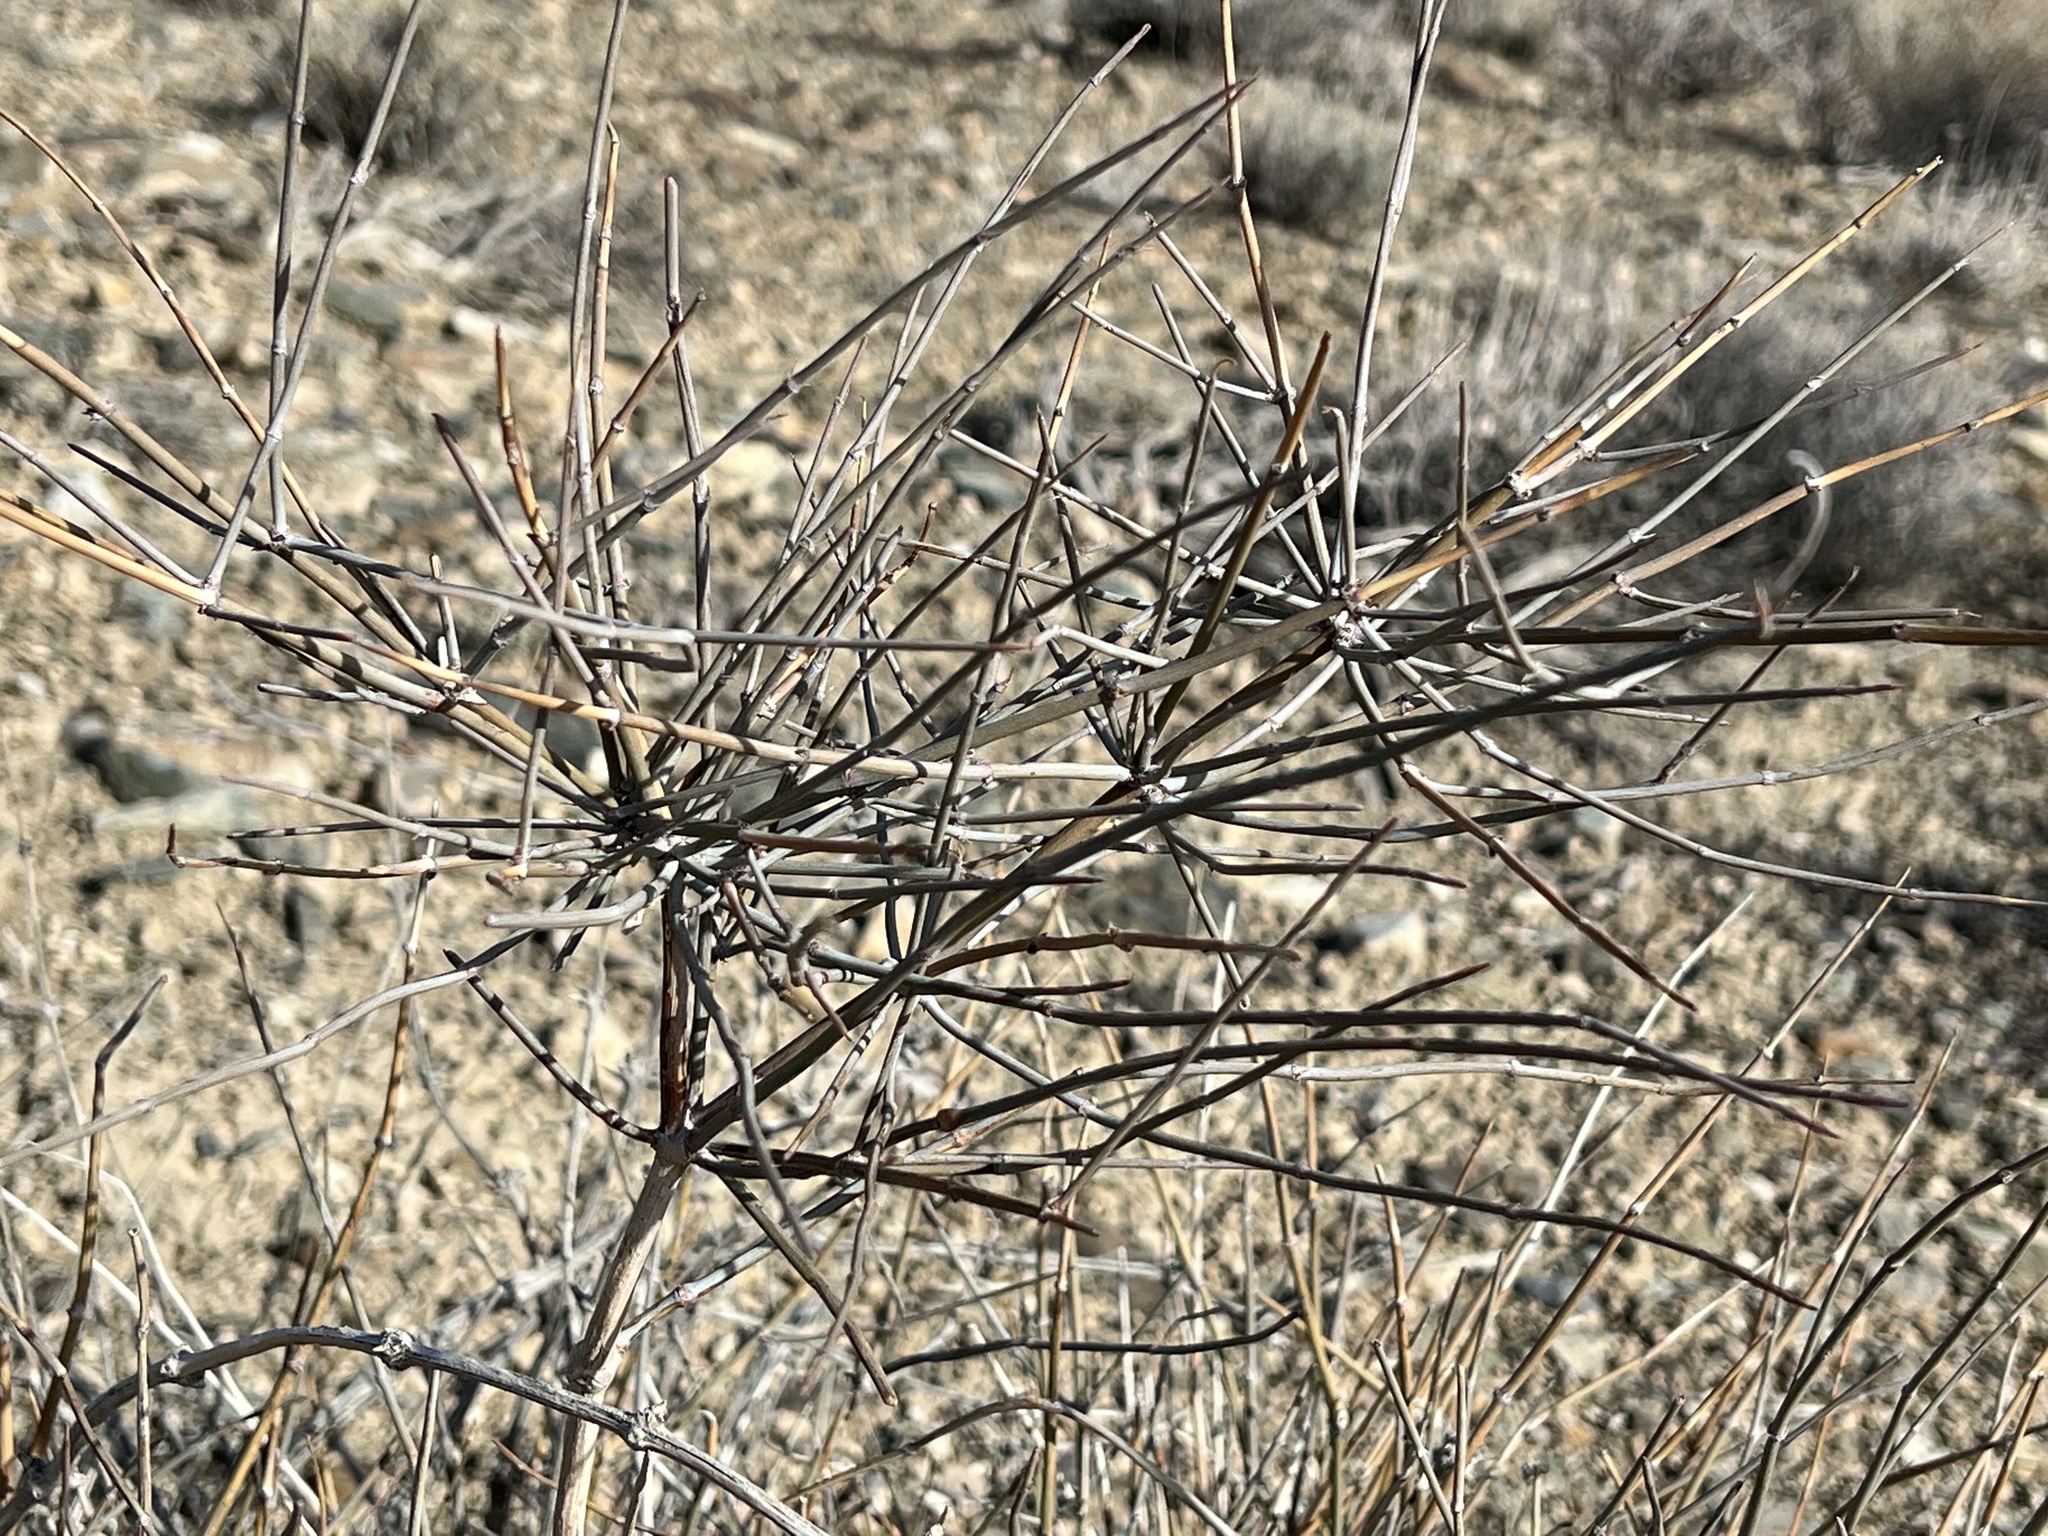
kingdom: Plantae
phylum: Tracheophyta
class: Gnetopsida
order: Ephedrales
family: Ephedraceae
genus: Ephedra
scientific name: Ephedra nevadensis
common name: Gray ephedra
